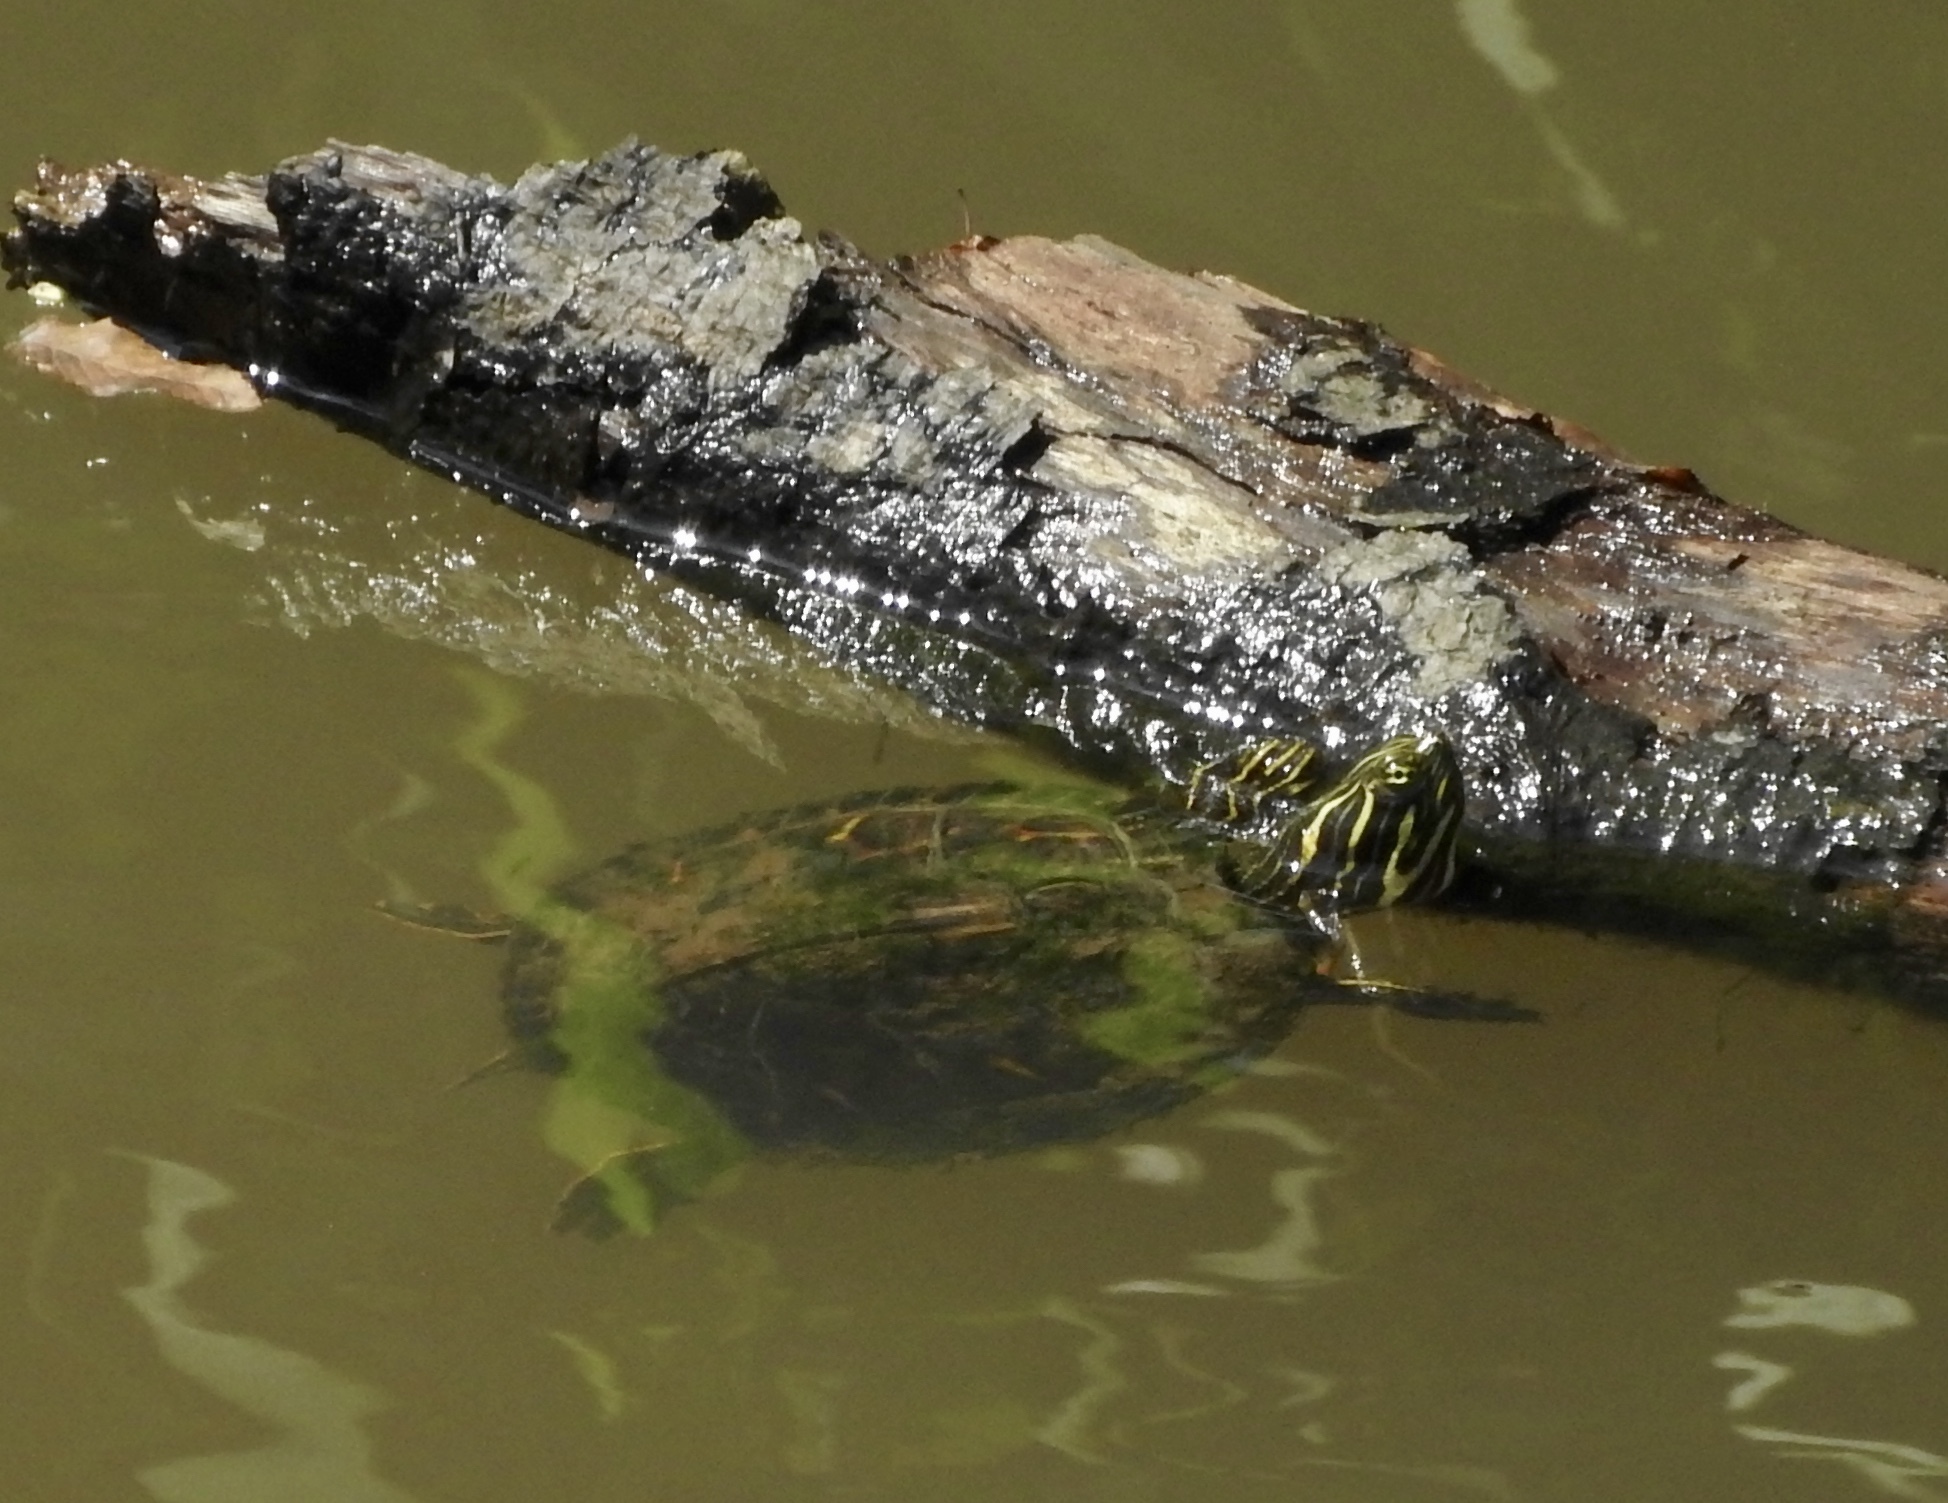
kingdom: Animalia
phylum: Chordata
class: Testudines
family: Emydidae
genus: Pseudemys
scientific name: Pseudemys concinna
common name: Eastern river cooter
